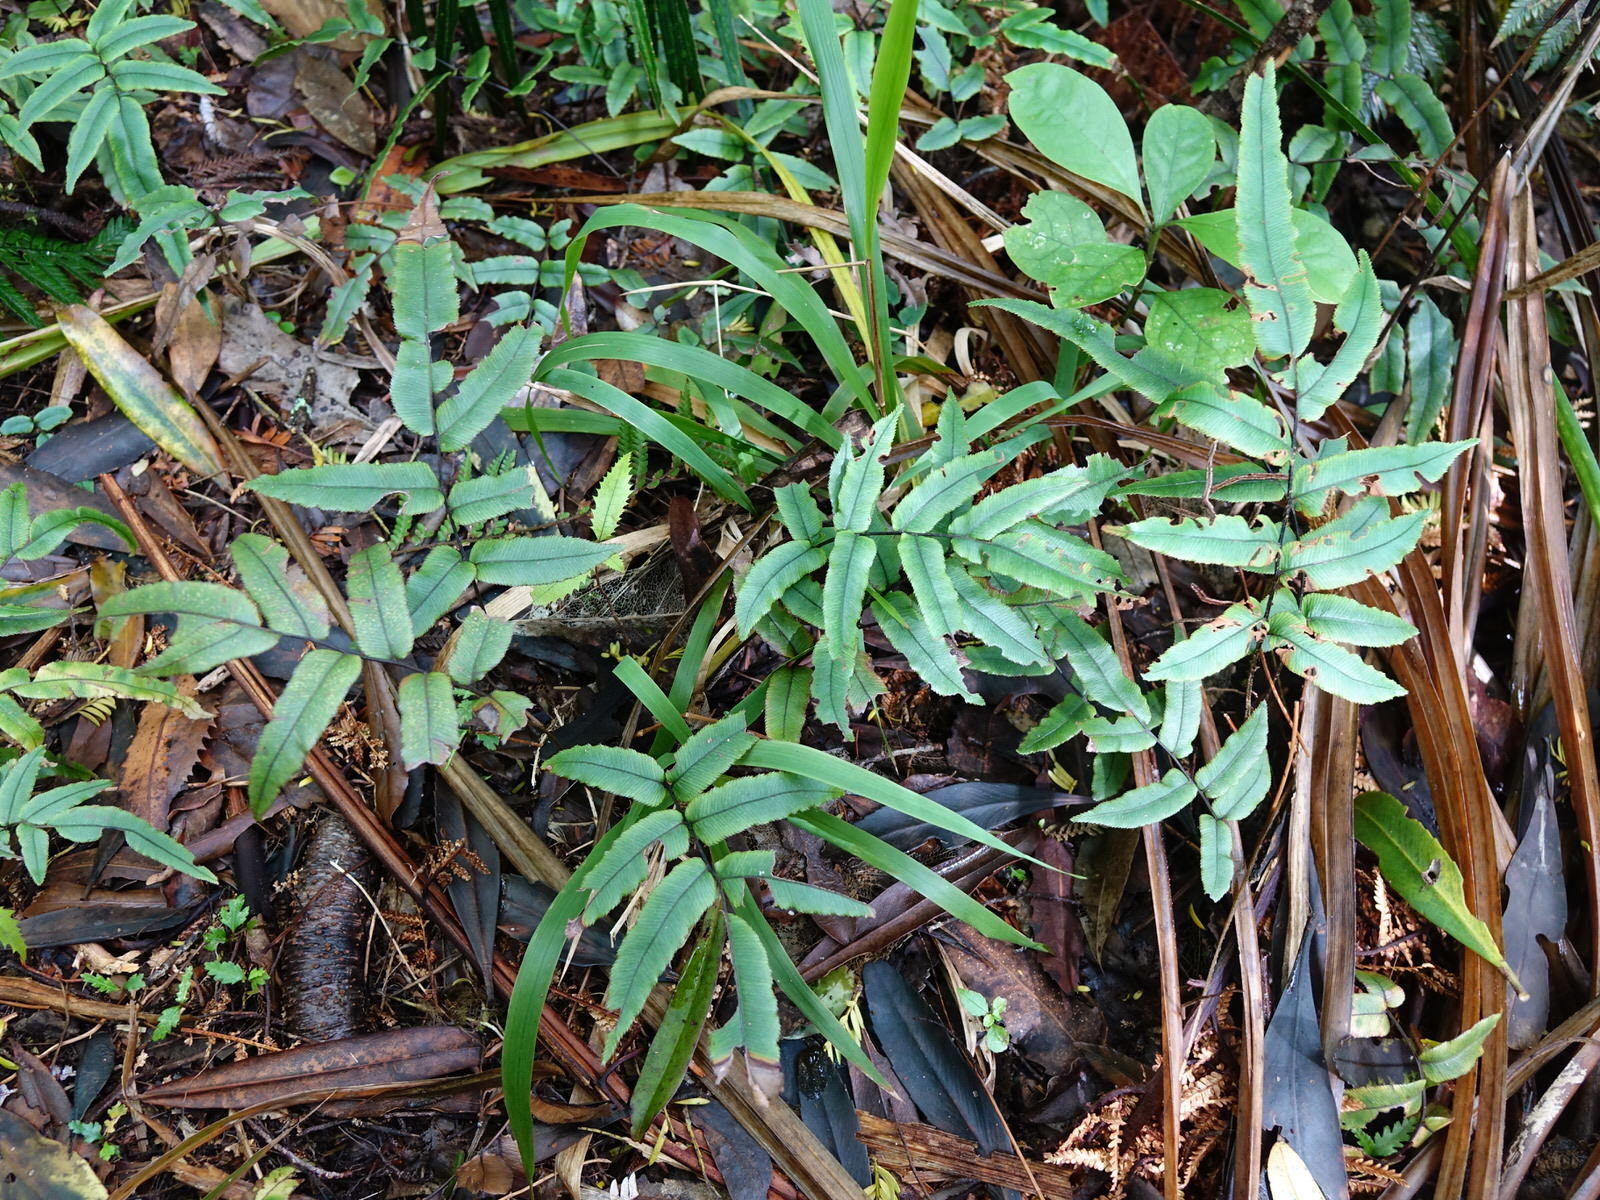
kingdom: Plantae
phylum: Tracheophyta
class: Polypodiopsida
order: Polypodiales
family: Blechnaceae
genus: Parablechnum
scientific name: Parablechnum procerum
